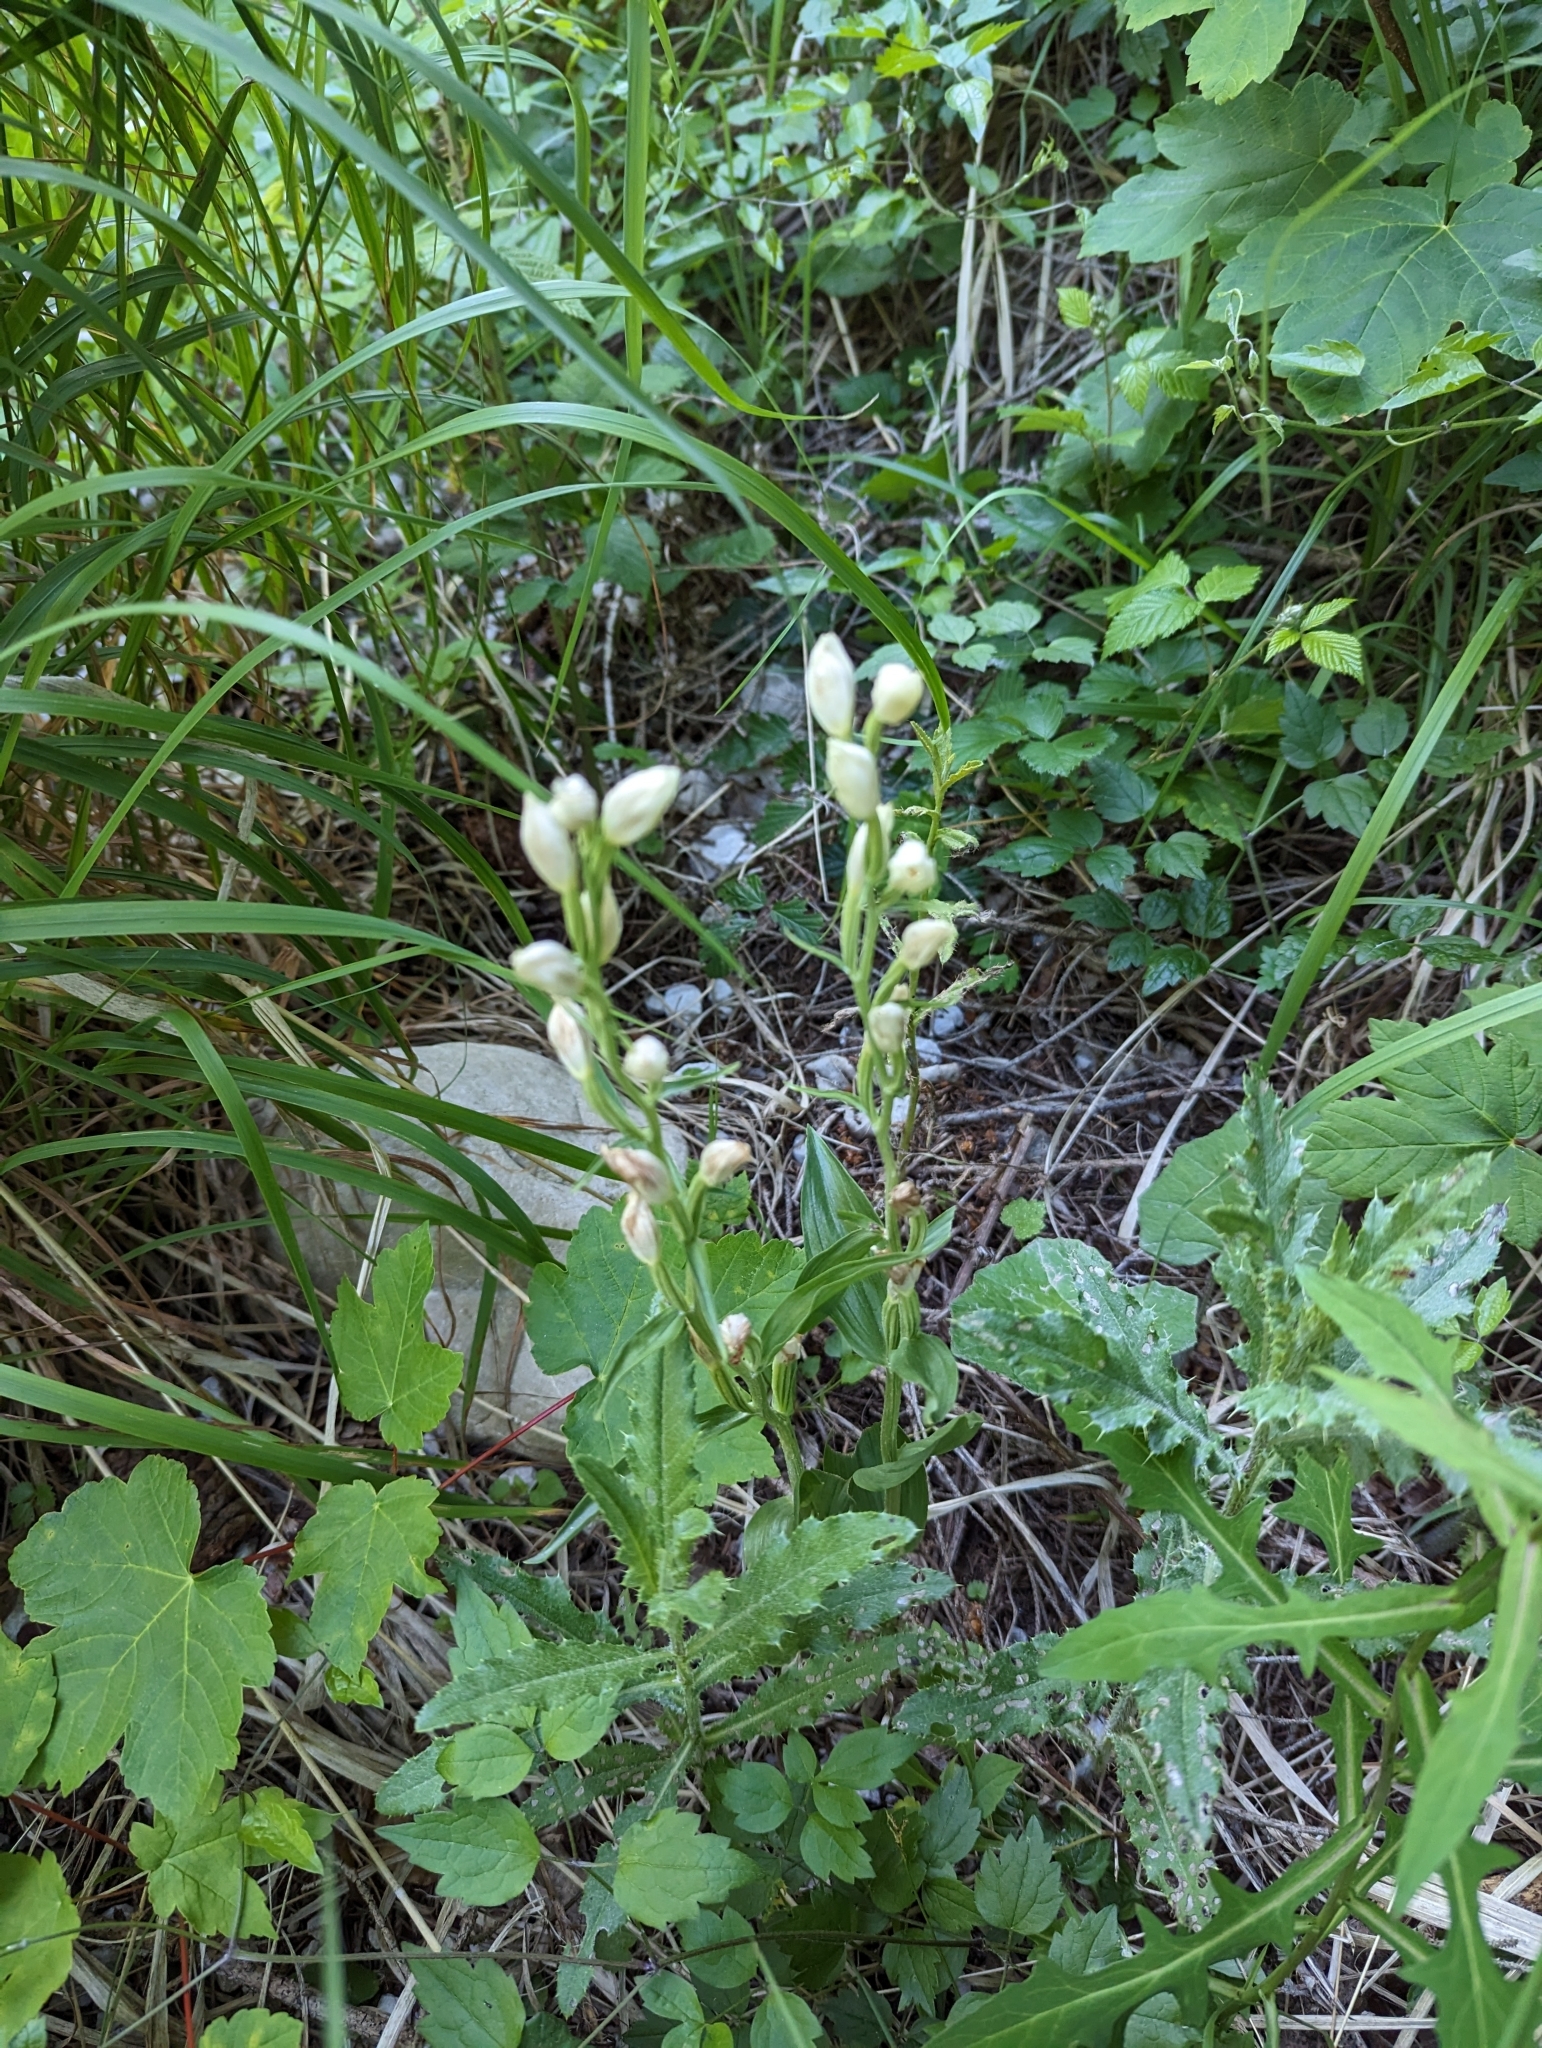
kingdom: Plantae
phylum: Tracheophyta
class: Liliopsida
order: Asparagales
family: Orchidaceae
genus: Cephalanthera
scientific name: Cephalanthera damasonium
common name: White helleborine
